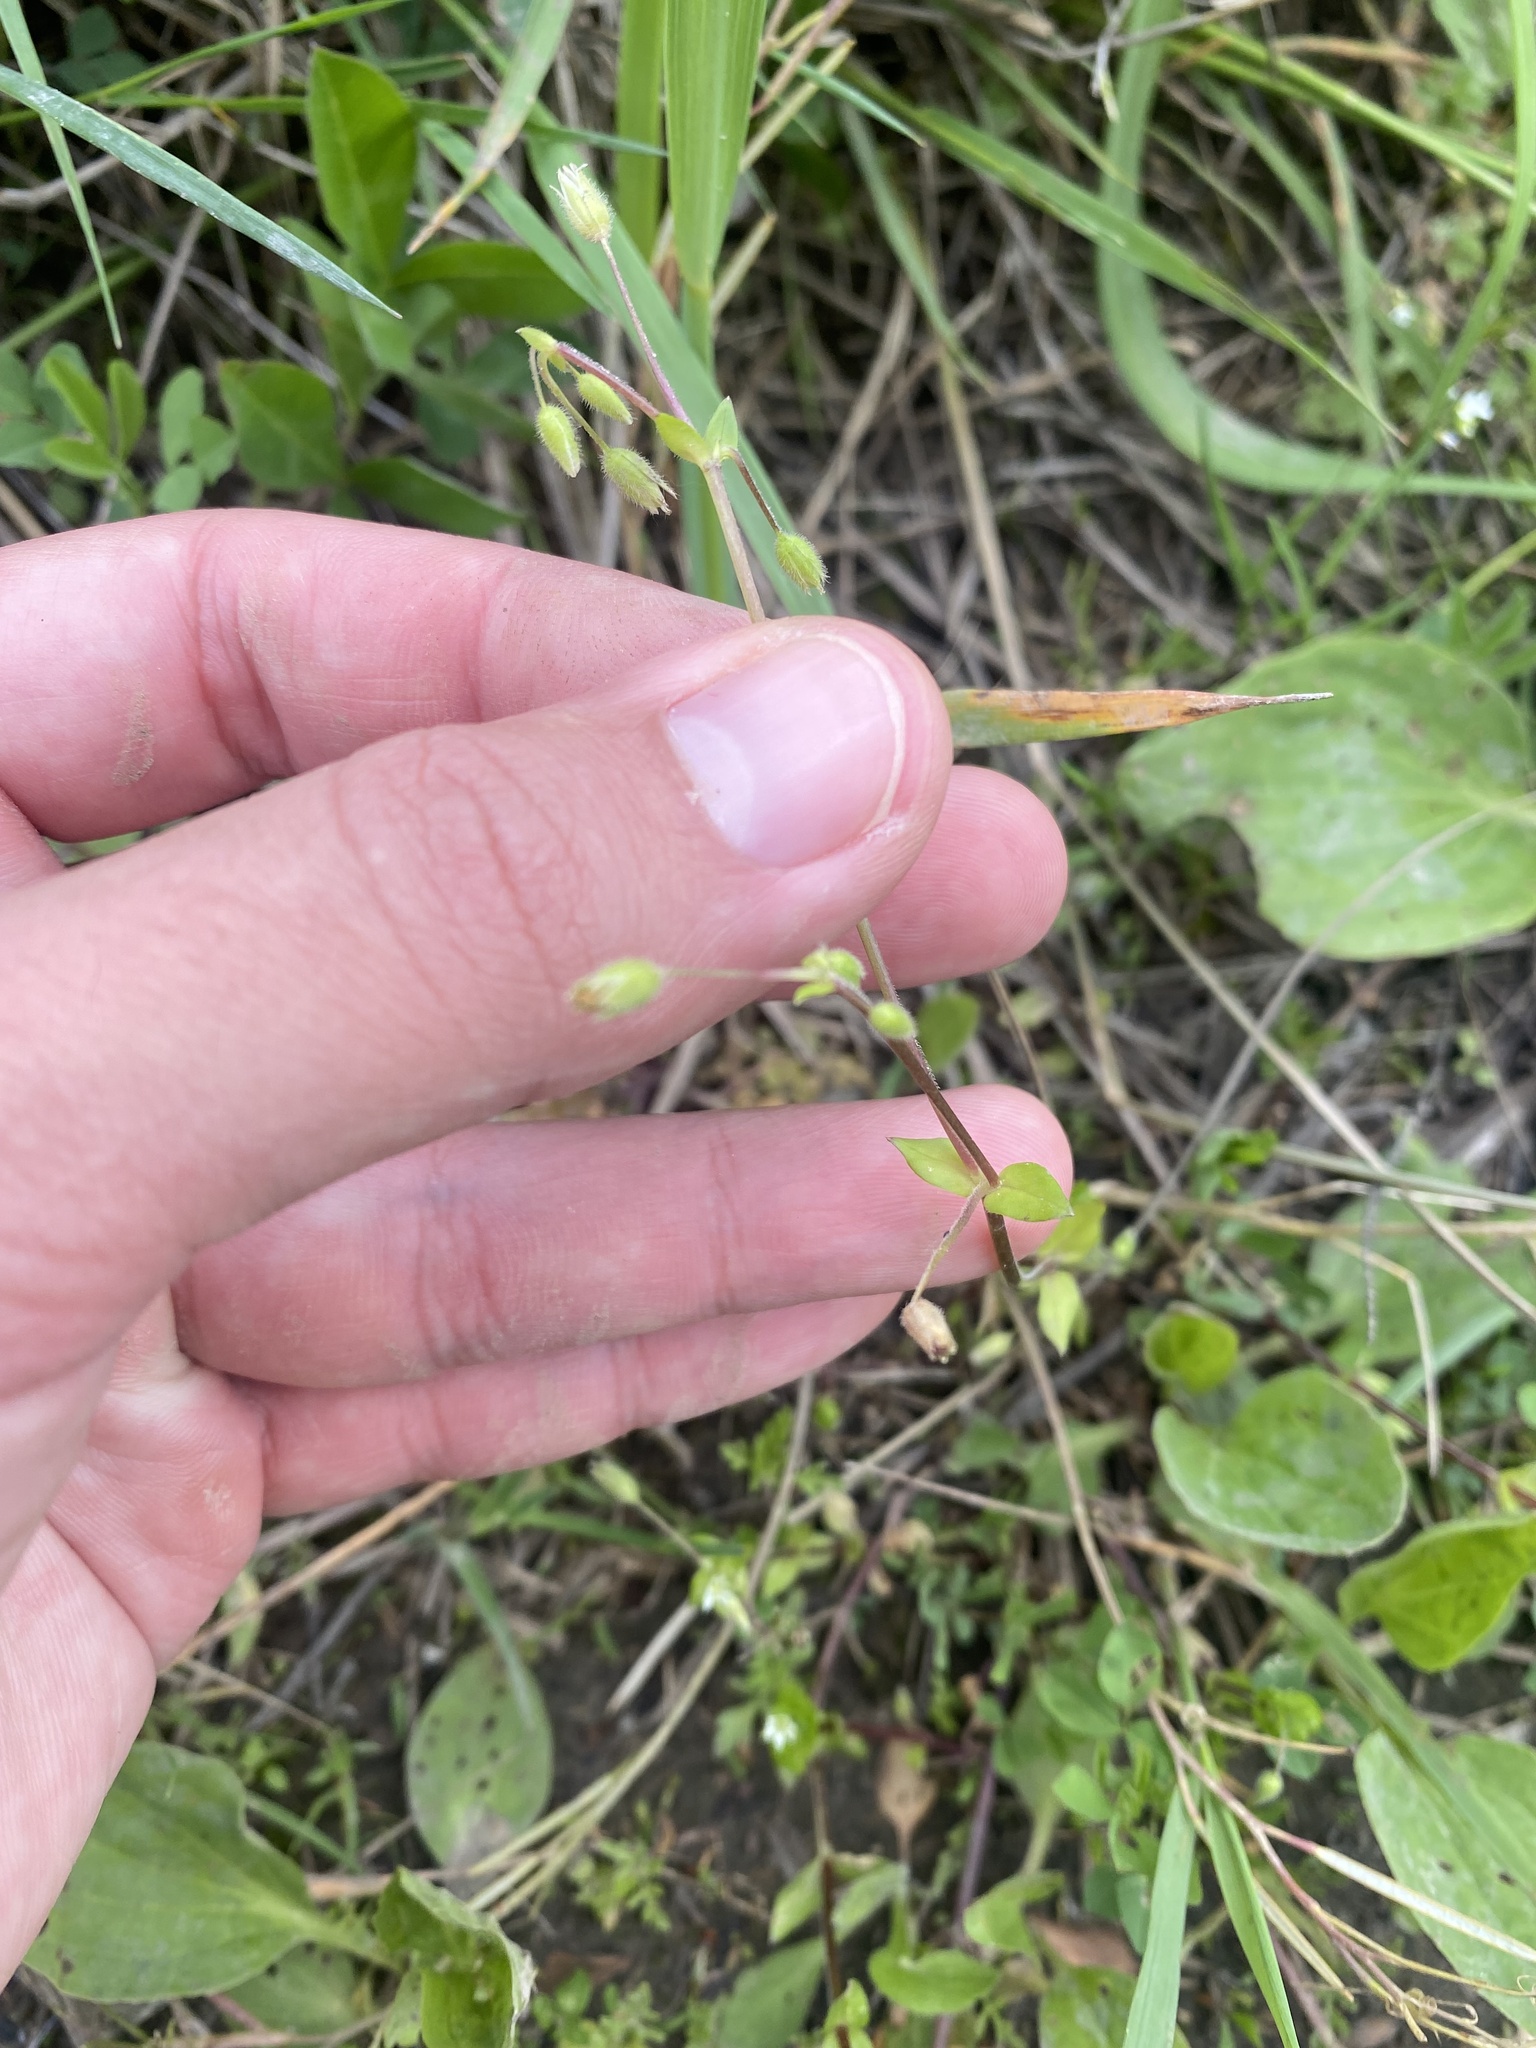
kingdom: Plantae
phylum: Tracheophyta
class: Magnoliopsida
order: Caryophyllales
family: Caryophyllaceae
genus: Holosteum
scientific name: Holosteum umbellatum
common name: Jagged chickweed
